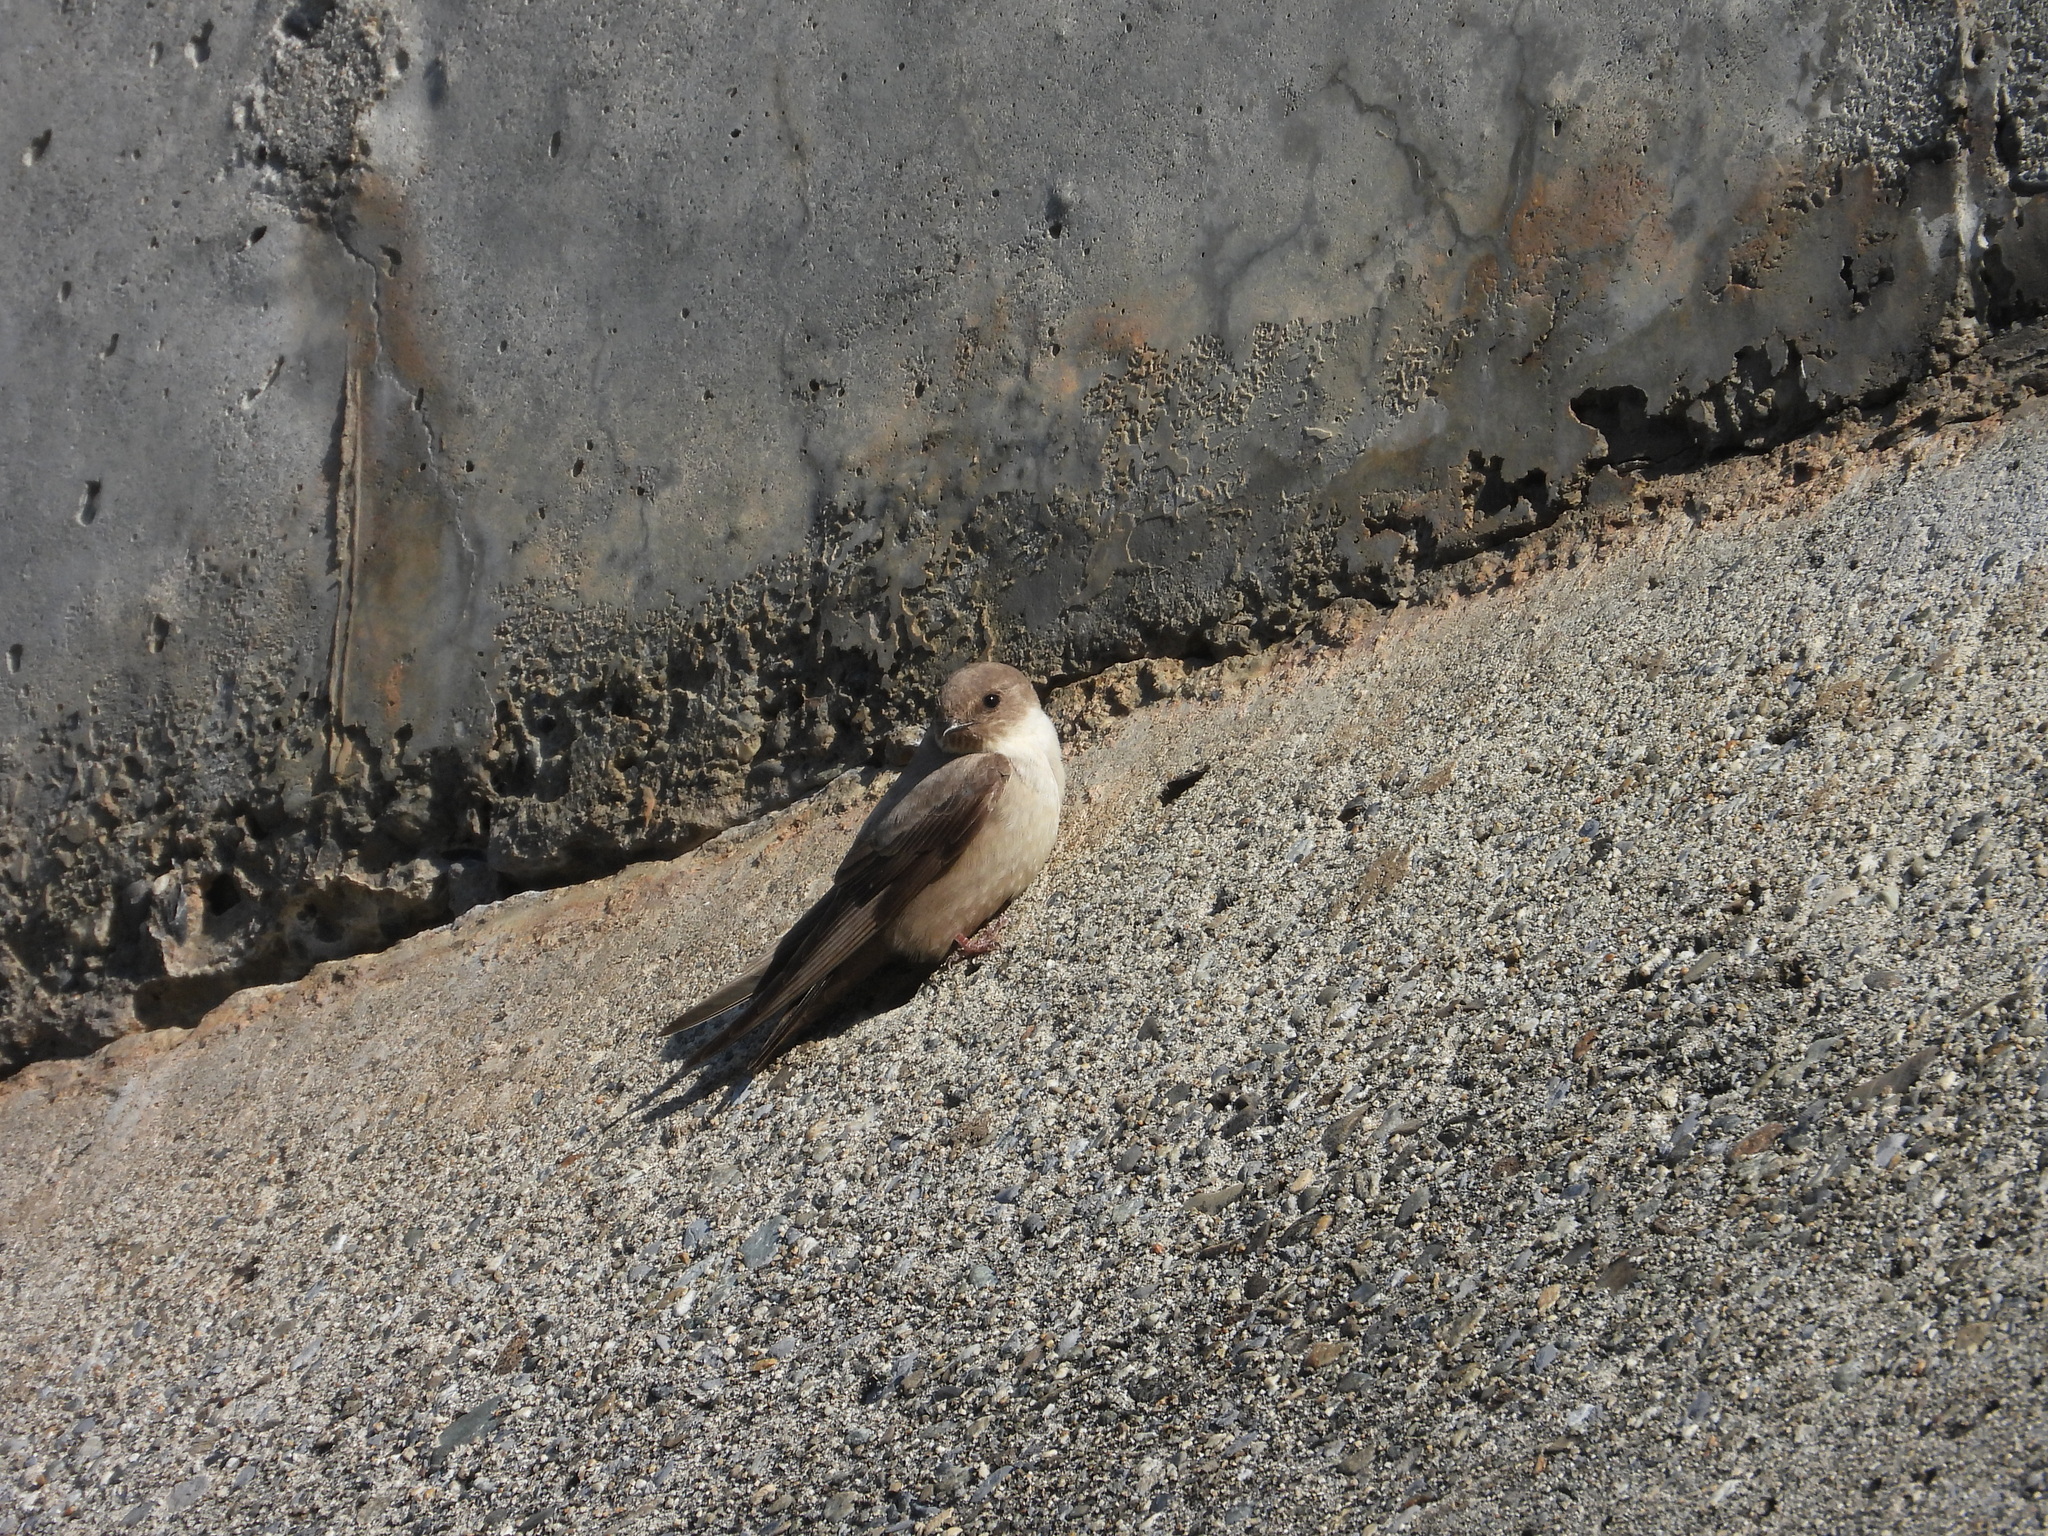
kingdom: Animalia
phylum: Chordata
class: Aves
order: Passeriformes
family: Hirundinidae
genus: Ptyonoprogne
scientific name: Ptyonoprogne rupestris
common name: Eurasian crag martin
